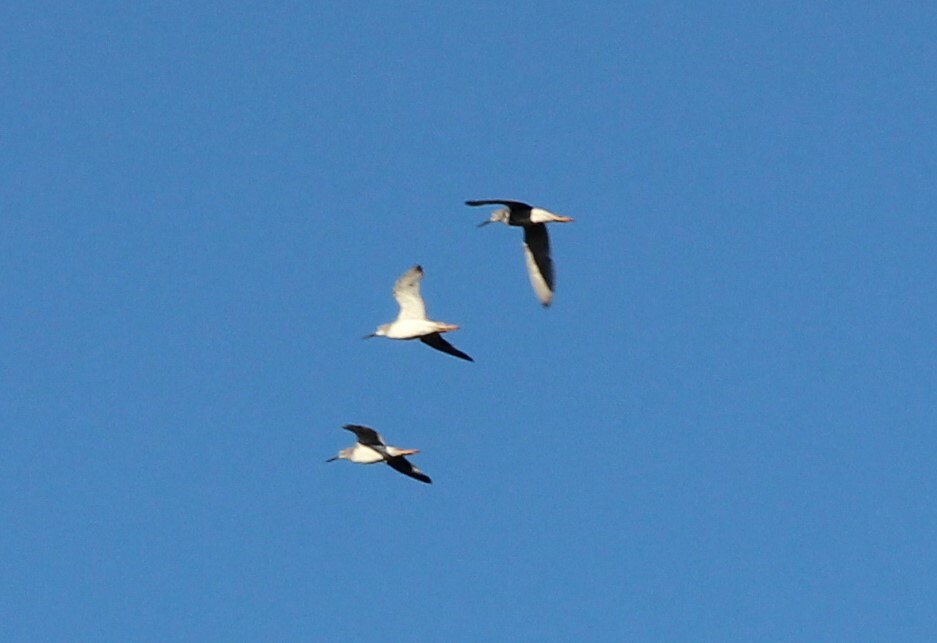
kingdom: Animalia
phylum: Chordata
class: Aves
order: Charadriiformes
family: Scolopacidae
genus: Tringa
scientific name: Tringa melanoleuca
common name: Greater yellowlegs
